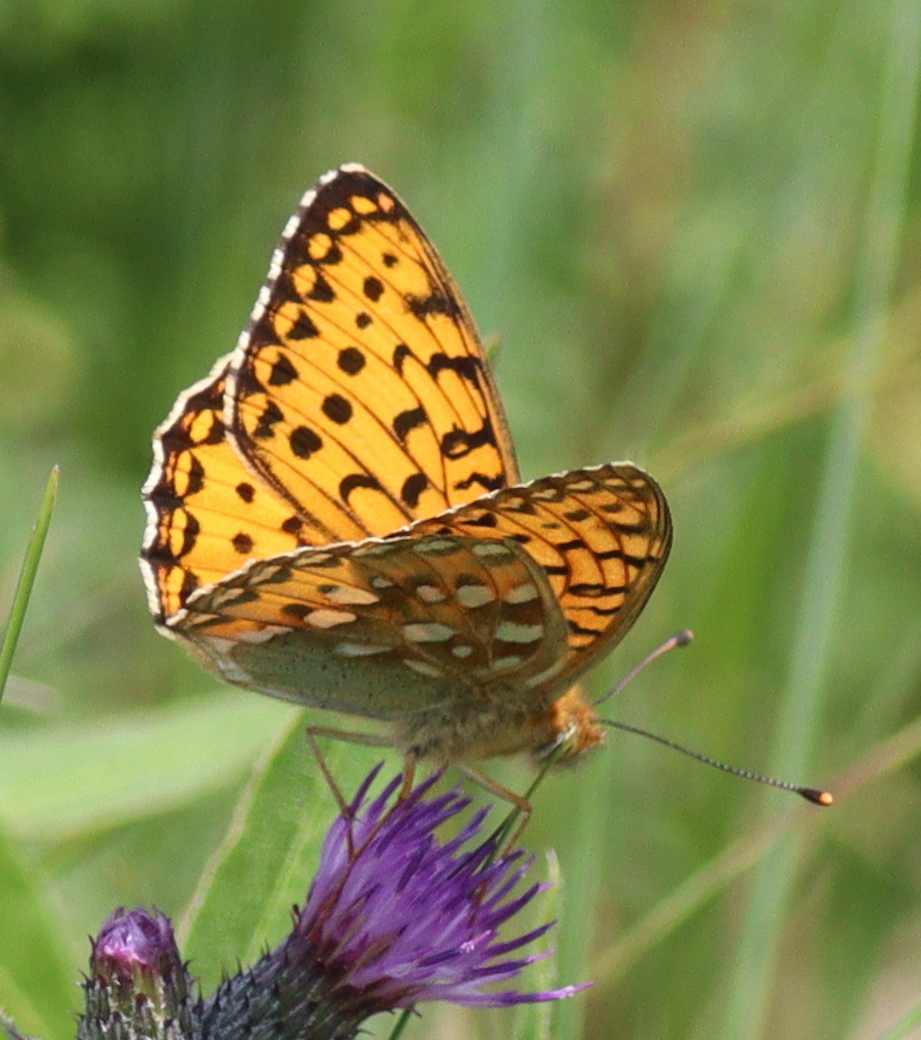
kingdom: Animalia
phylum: Arthropoda
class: Insecta
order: Lepidoptera
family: Nymphalidae
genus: Speyeria
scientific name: Speyeria aglaja
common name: Dark green fritillary
